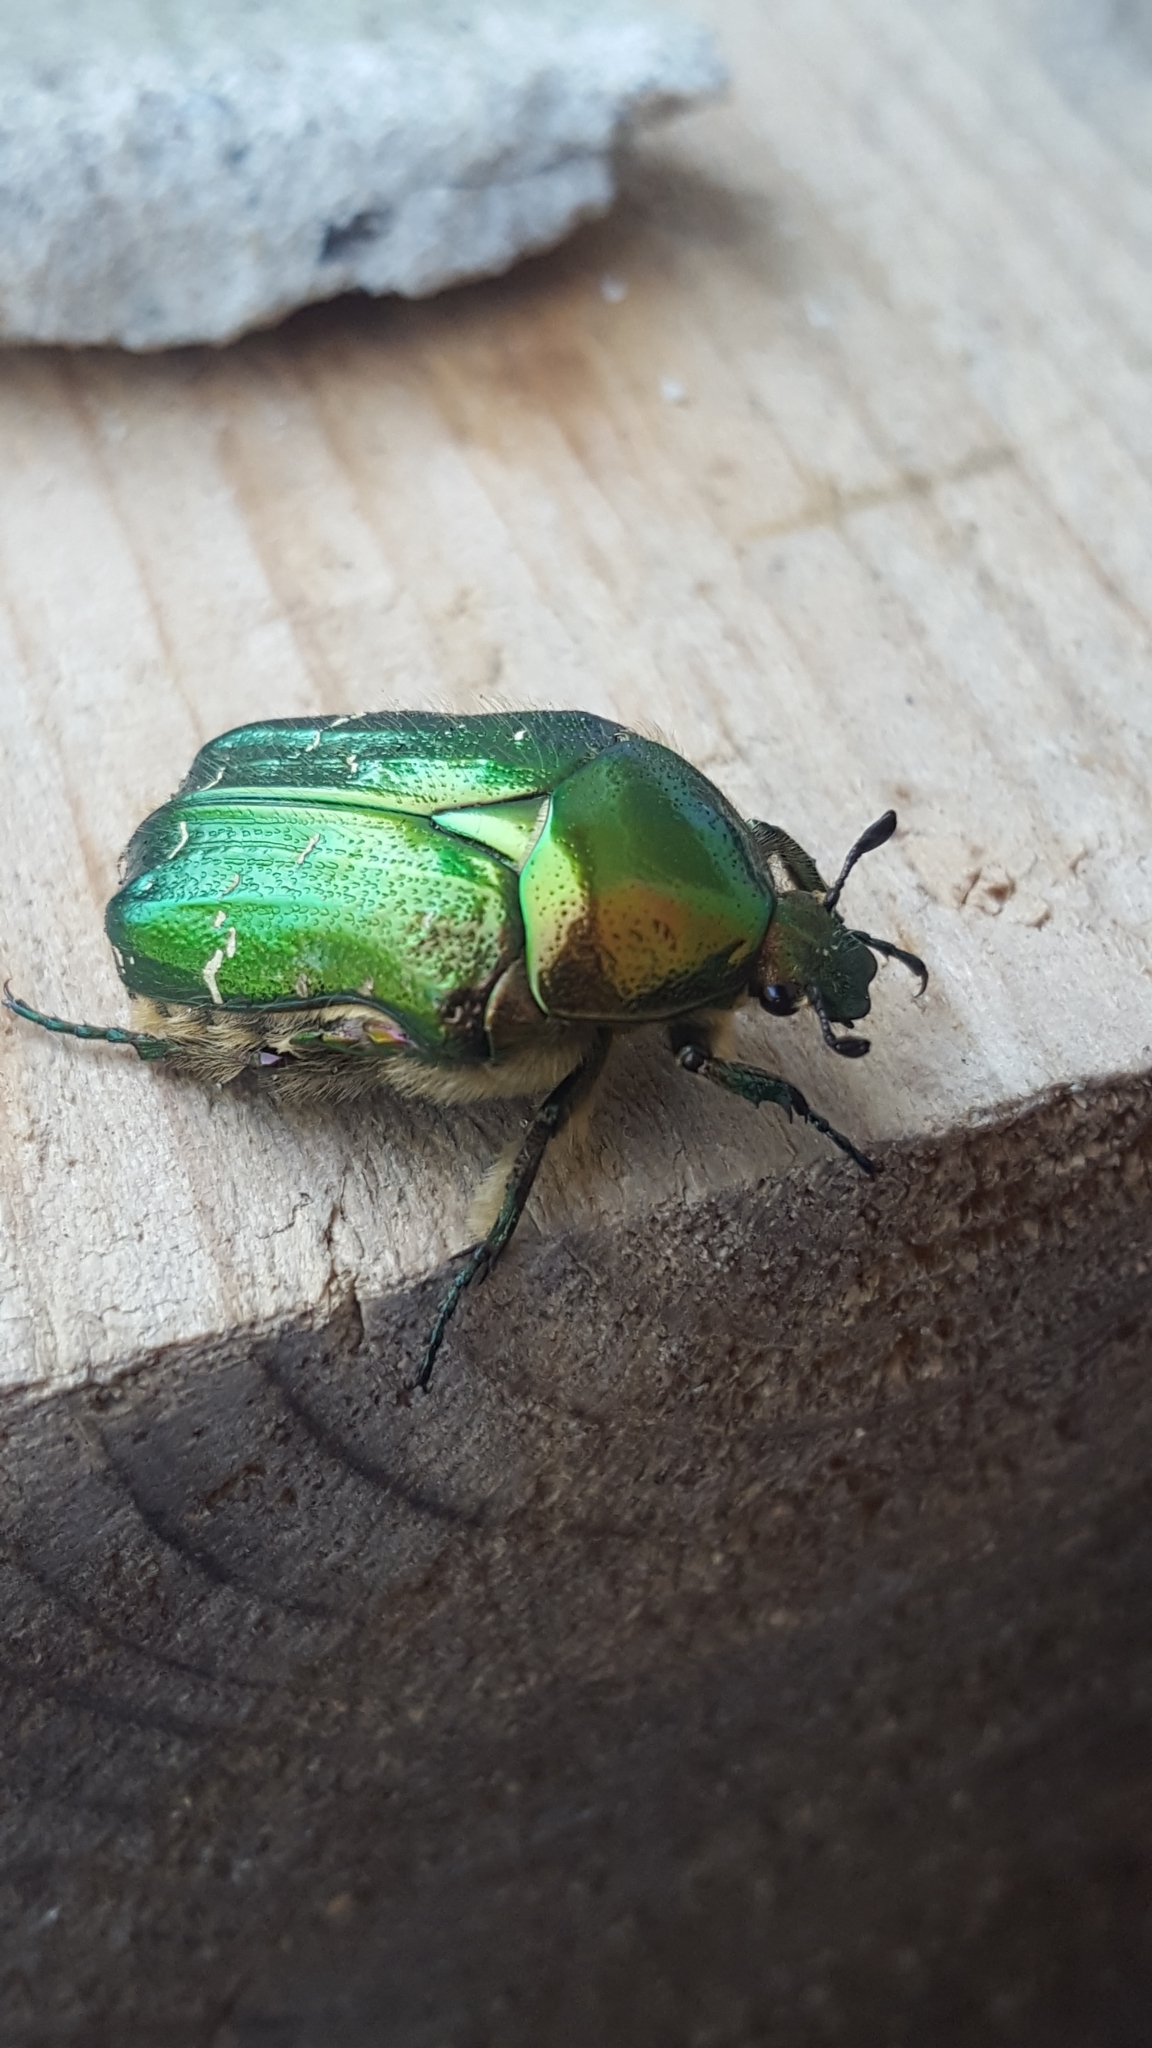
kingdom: Animalia
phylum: Arthropoda
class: Insecta
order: Coleoptera
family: Scarabaeidae
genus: Cetonia
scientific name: Cetonia aurata
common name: Rose chafer
